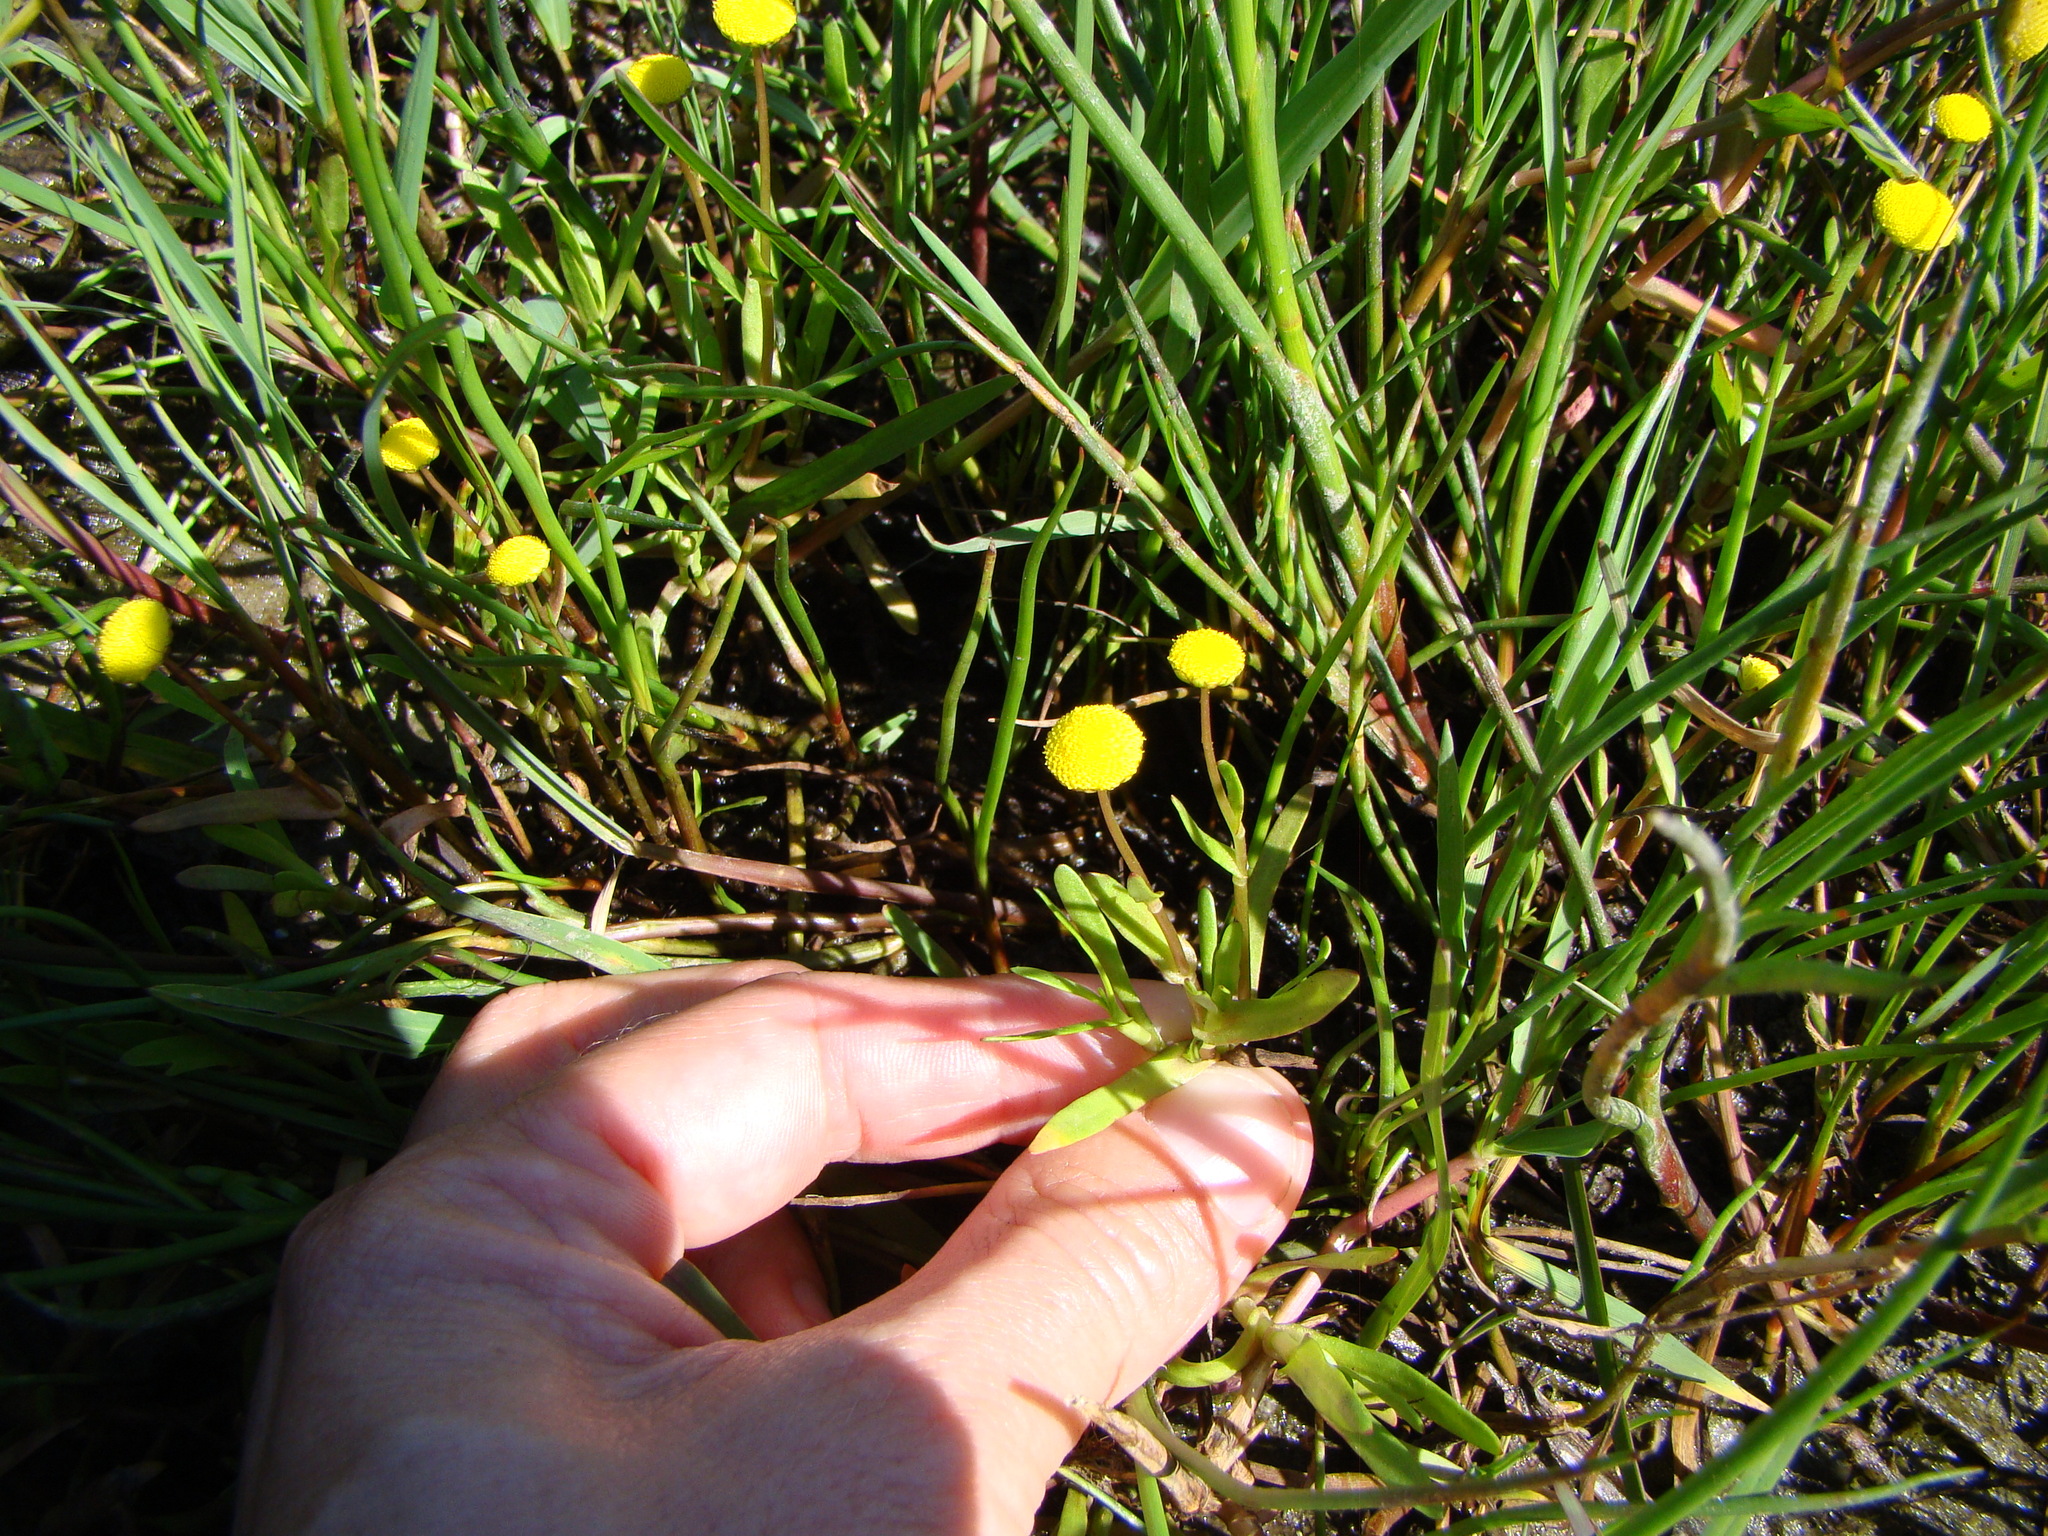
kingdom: Plantae
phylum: Tracheophyta
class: Magnoliopsida
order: Asterales
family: Asteraceae
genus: Cotula
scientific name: Cotula coronopifolia
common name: Buttonweed
